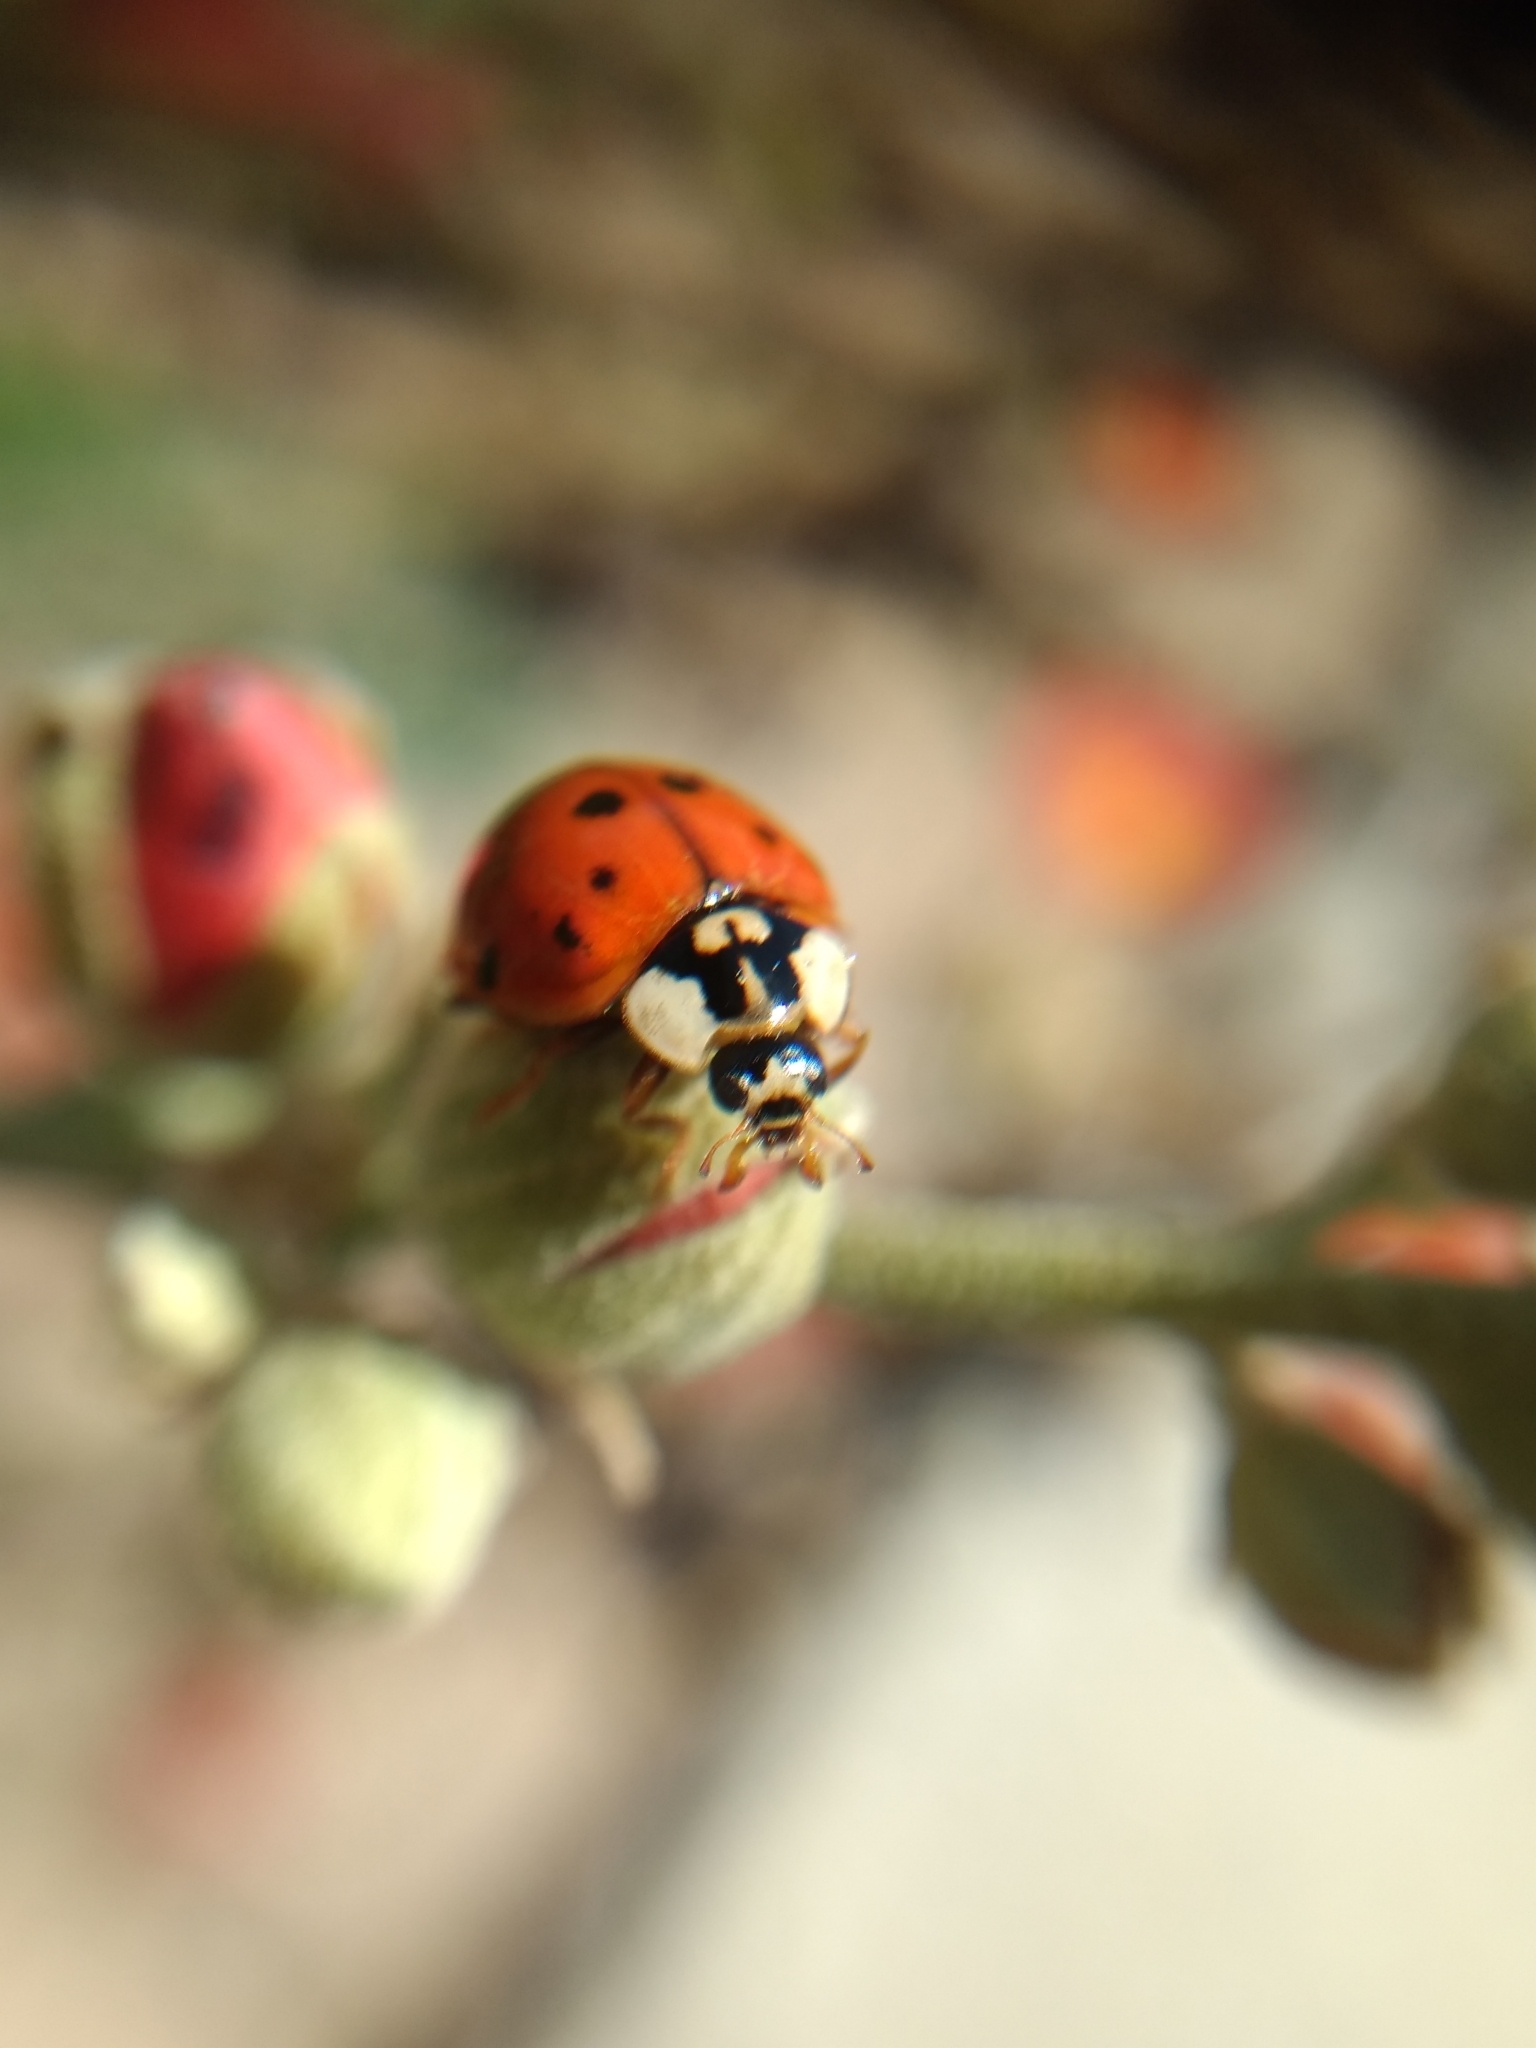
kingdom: Animalia
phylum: Arthropoda
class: Insecta
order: Coleoptera
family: Coccinellidae
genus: Harmonia
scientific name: Harmonia axyridis
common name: Harlequin ladybird
